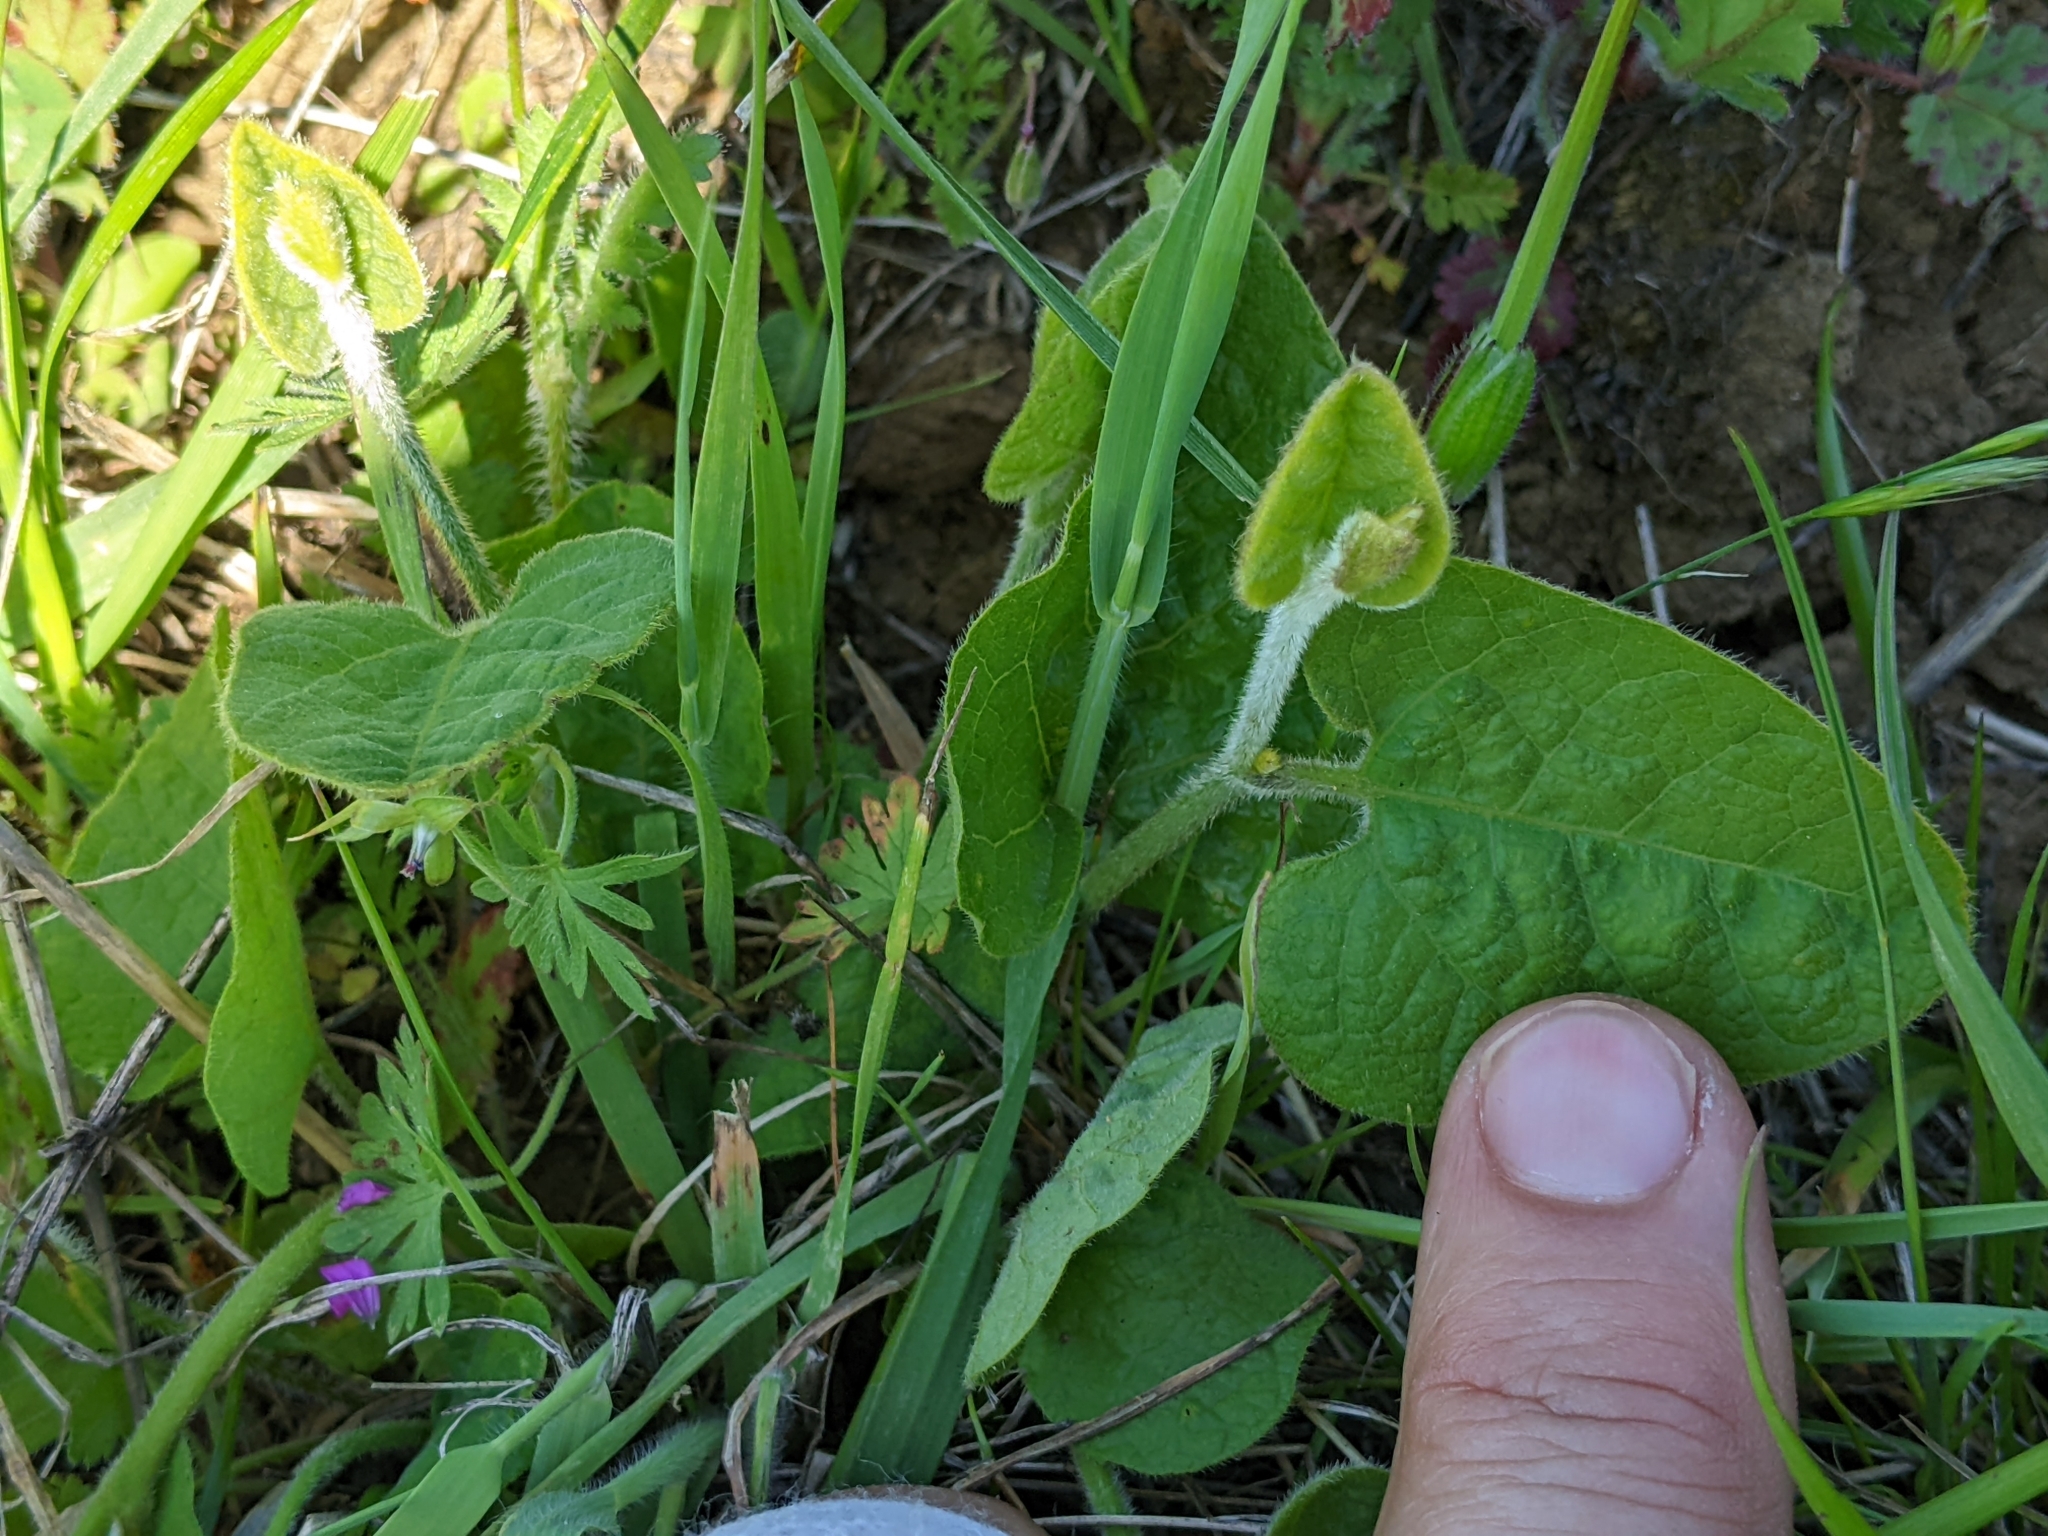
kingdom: Plantae
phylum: Tracheophyta
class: Magnoliopsida
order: Piperales
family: Aristolochiaceae
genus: Isotrema
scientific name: Isotrema californicum
